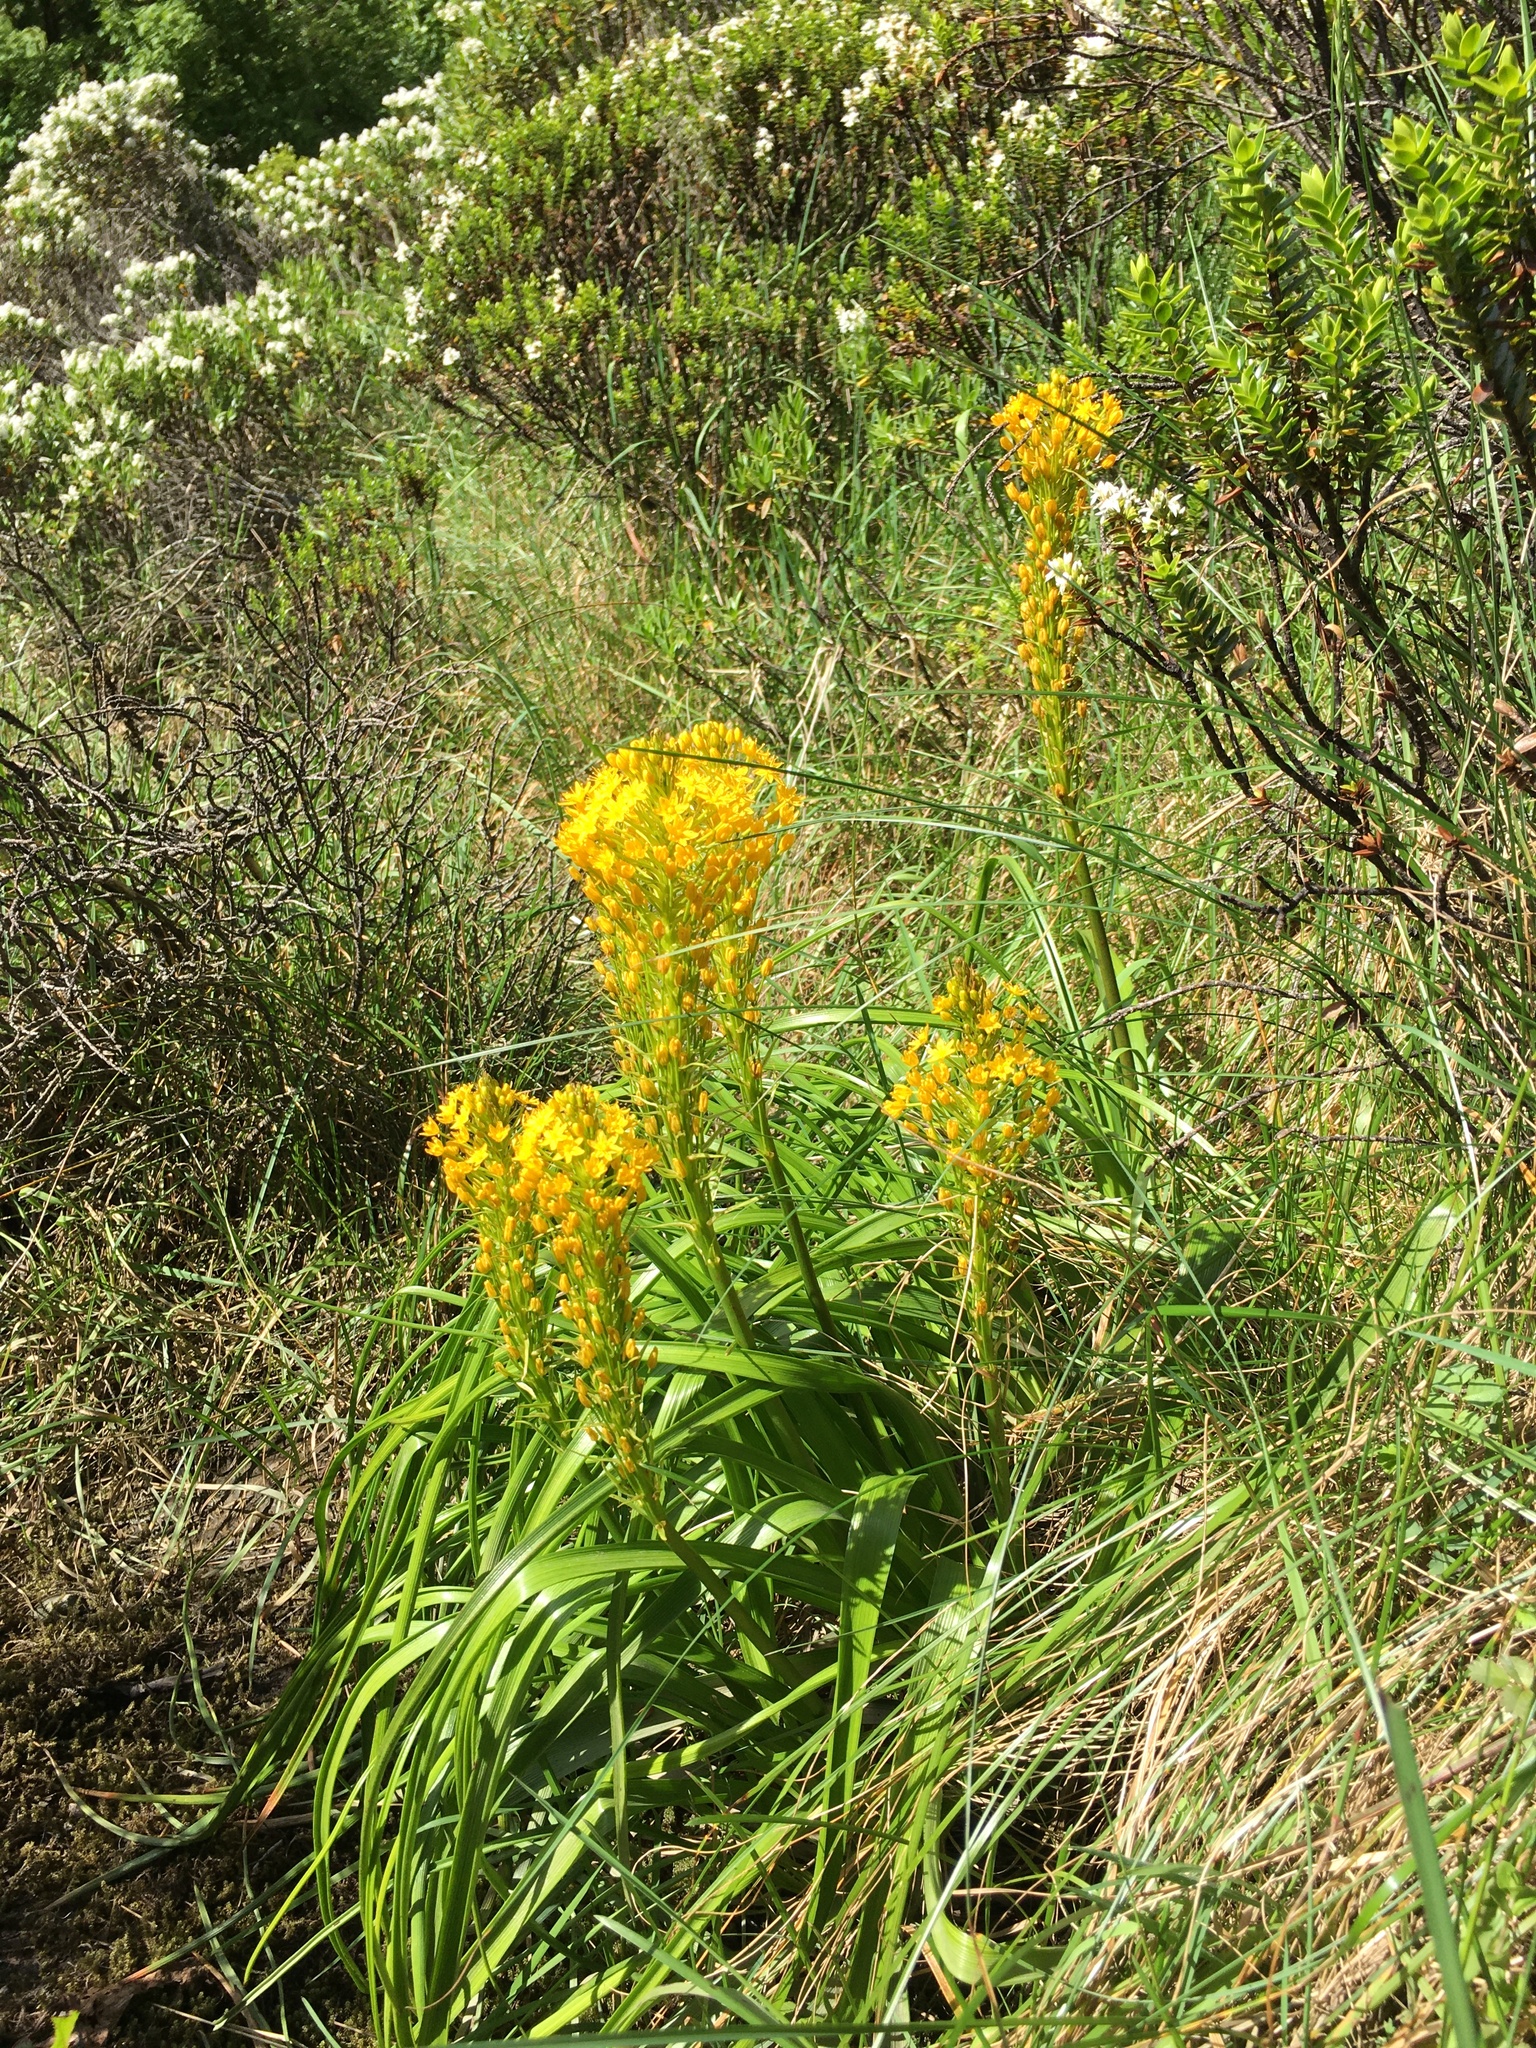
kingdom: Plantae
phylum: Tracheophyta
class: Liliopsida
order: Asparagales
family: Asphodelaceae
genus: Bulbinella
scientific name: Bulbinella angustifolia
